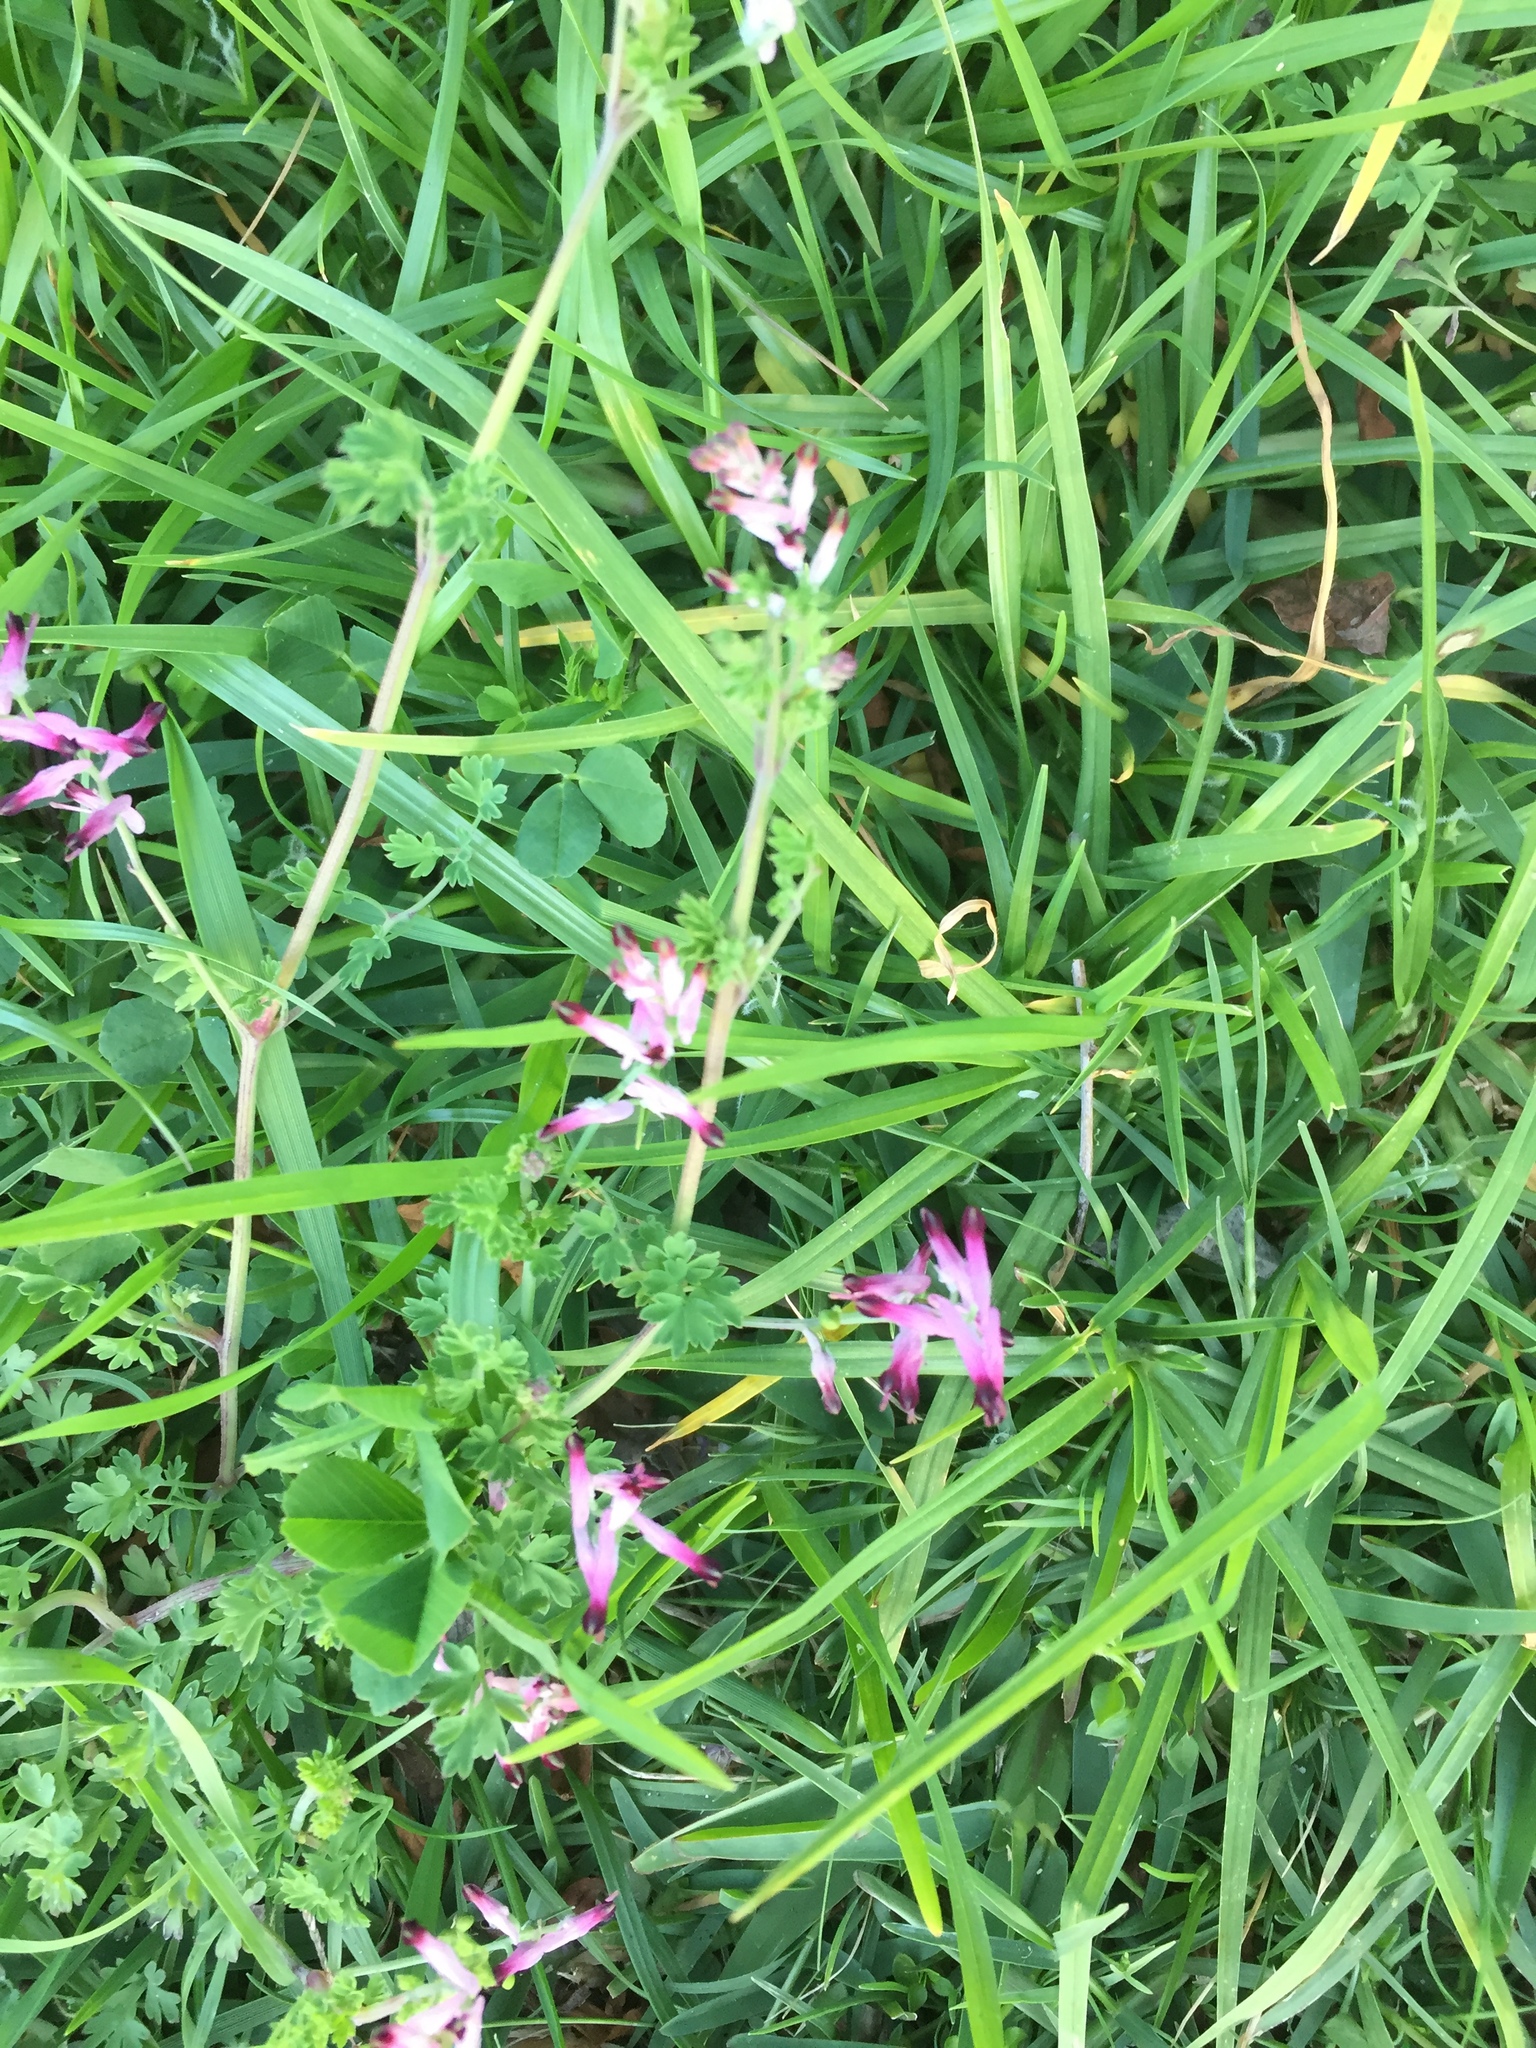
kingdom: Plantae
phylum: Tracheophyta
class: Magnoliopsida
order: Ranunculales
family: Papaveraceae
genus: Fumaria
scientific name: Fumaria muralis
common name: Common ramping-fumitory
